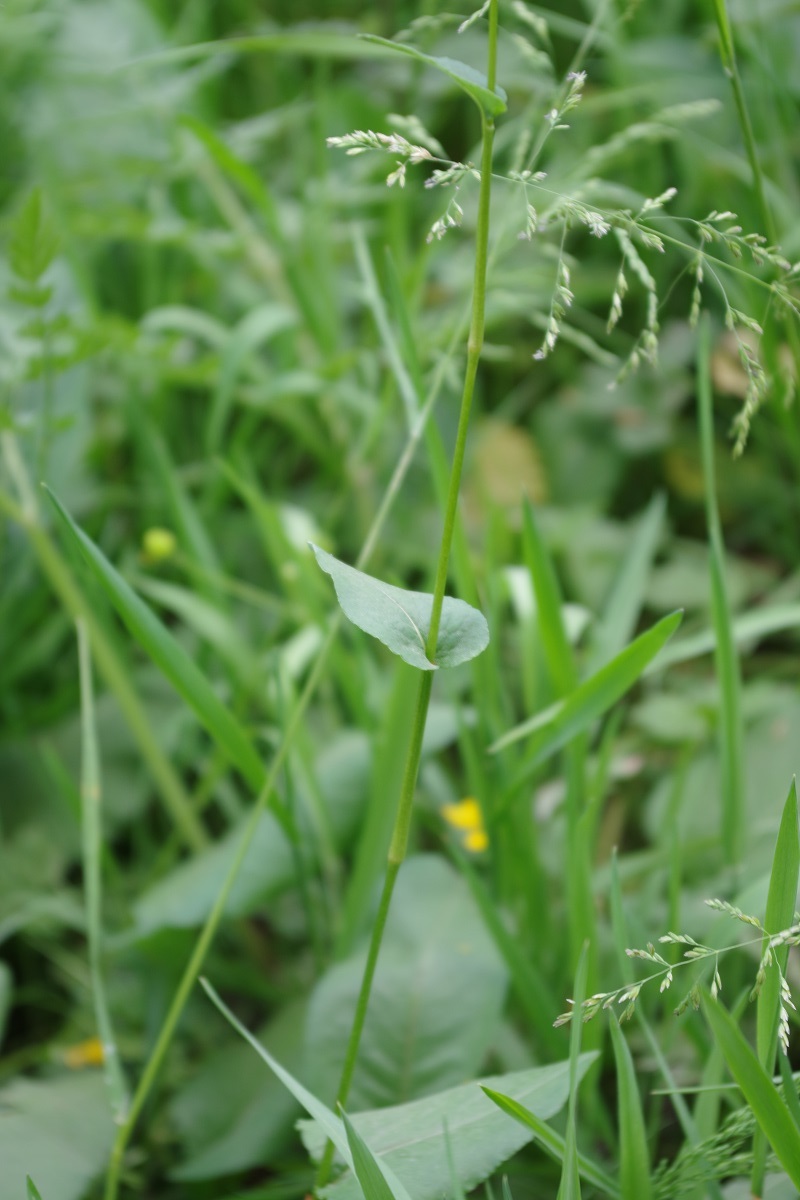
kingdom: Plantae
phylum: Tracheophyta
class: Magnoliopsida
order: Caryophyllales
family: Polygonaceae
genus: Bistorta
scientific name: Bistorta officinalis
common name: Common bistort
